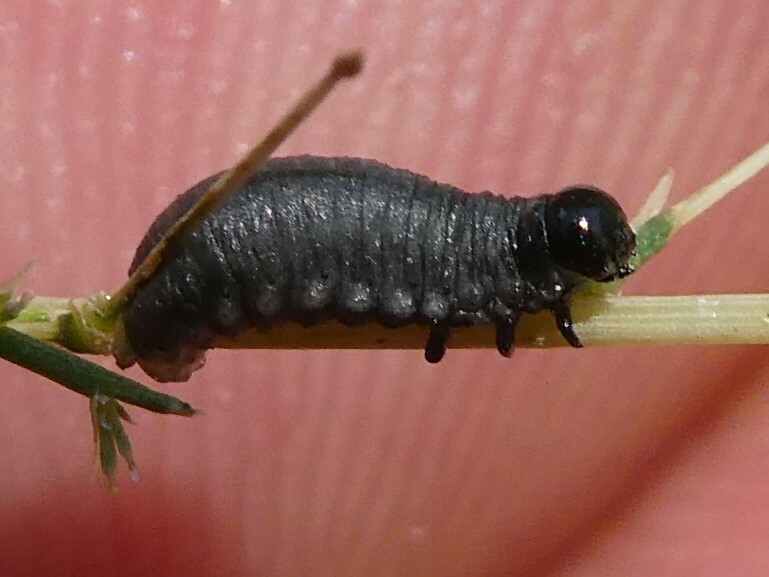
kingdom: Animalia
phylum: Arthropoda
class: Insecta
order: Coleoptera
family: Chrysomelidae
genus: Crioceris
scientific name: Crioceris asparagi
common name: Asparagus beetle
